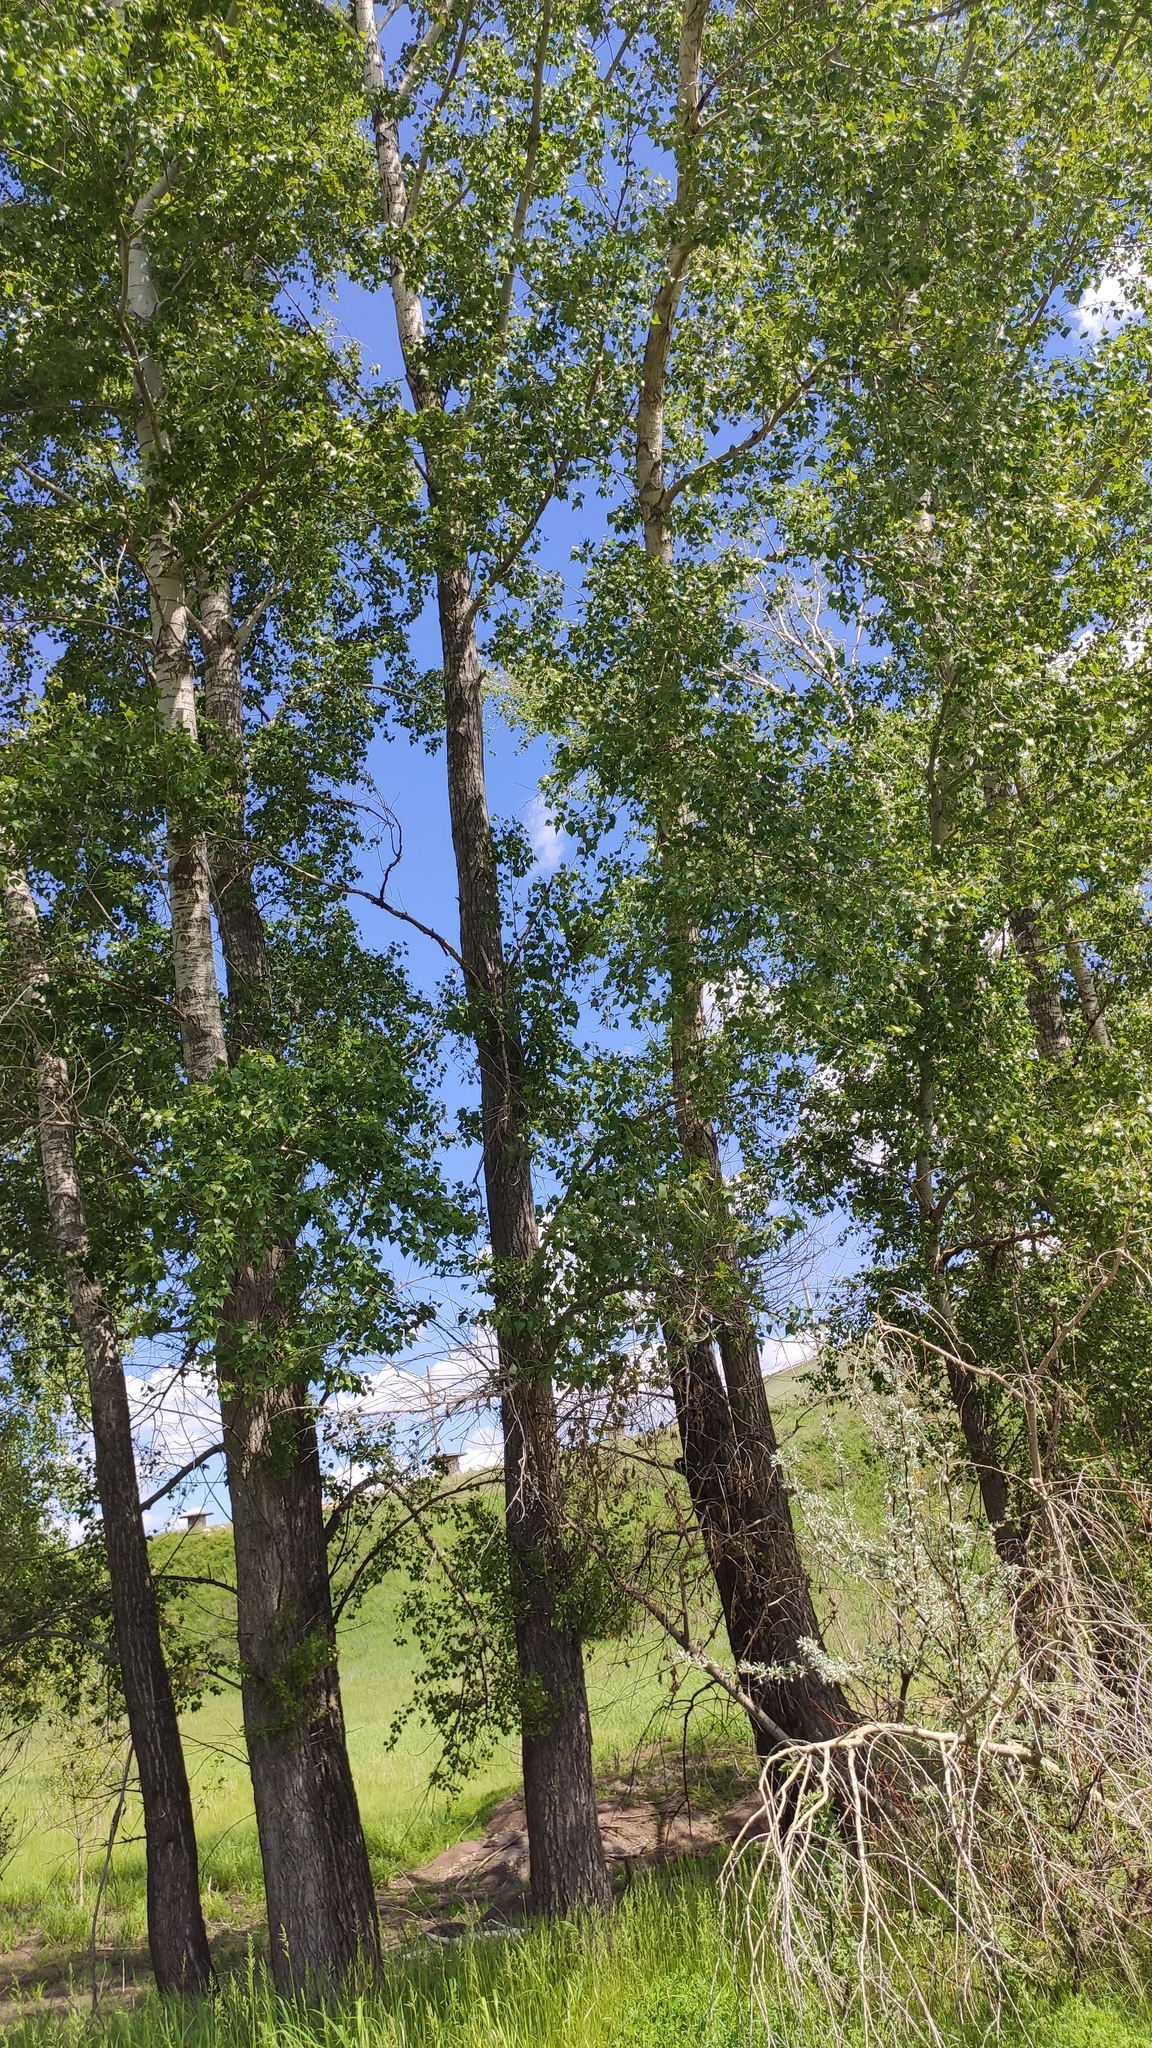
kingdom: Plantae
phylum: Tracheophyta
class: Magnoliopsida
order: Malpighiales
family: Salicaceae
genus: Populus
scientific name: Populus nigra
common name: Black poplar
